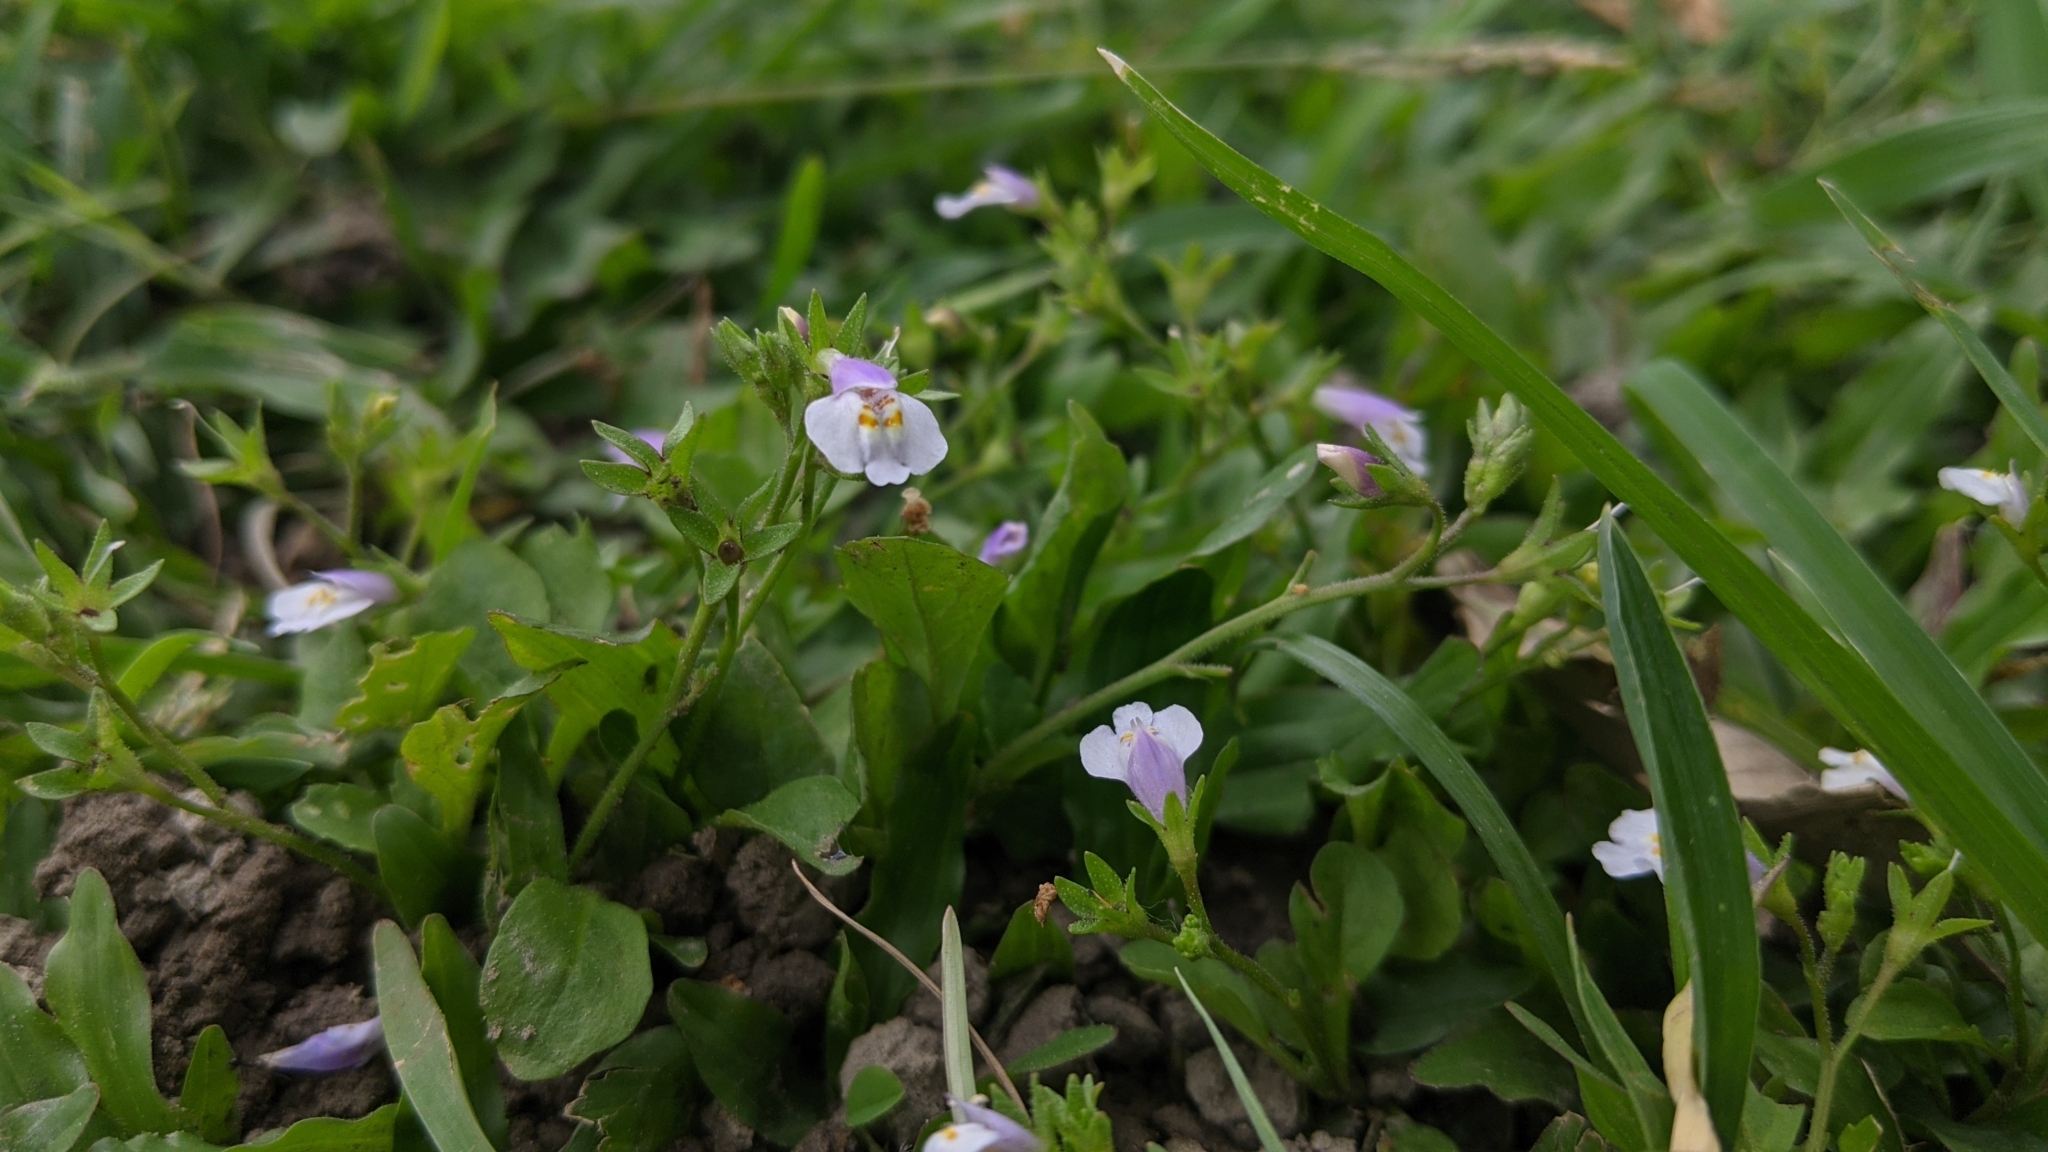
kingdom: Plantae
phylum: Tracheophyta
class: Magnoliopsida
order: Lamiales
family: Mazaceae
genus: Mazus
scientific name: Mazus pumilus
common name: Japanese mazus
